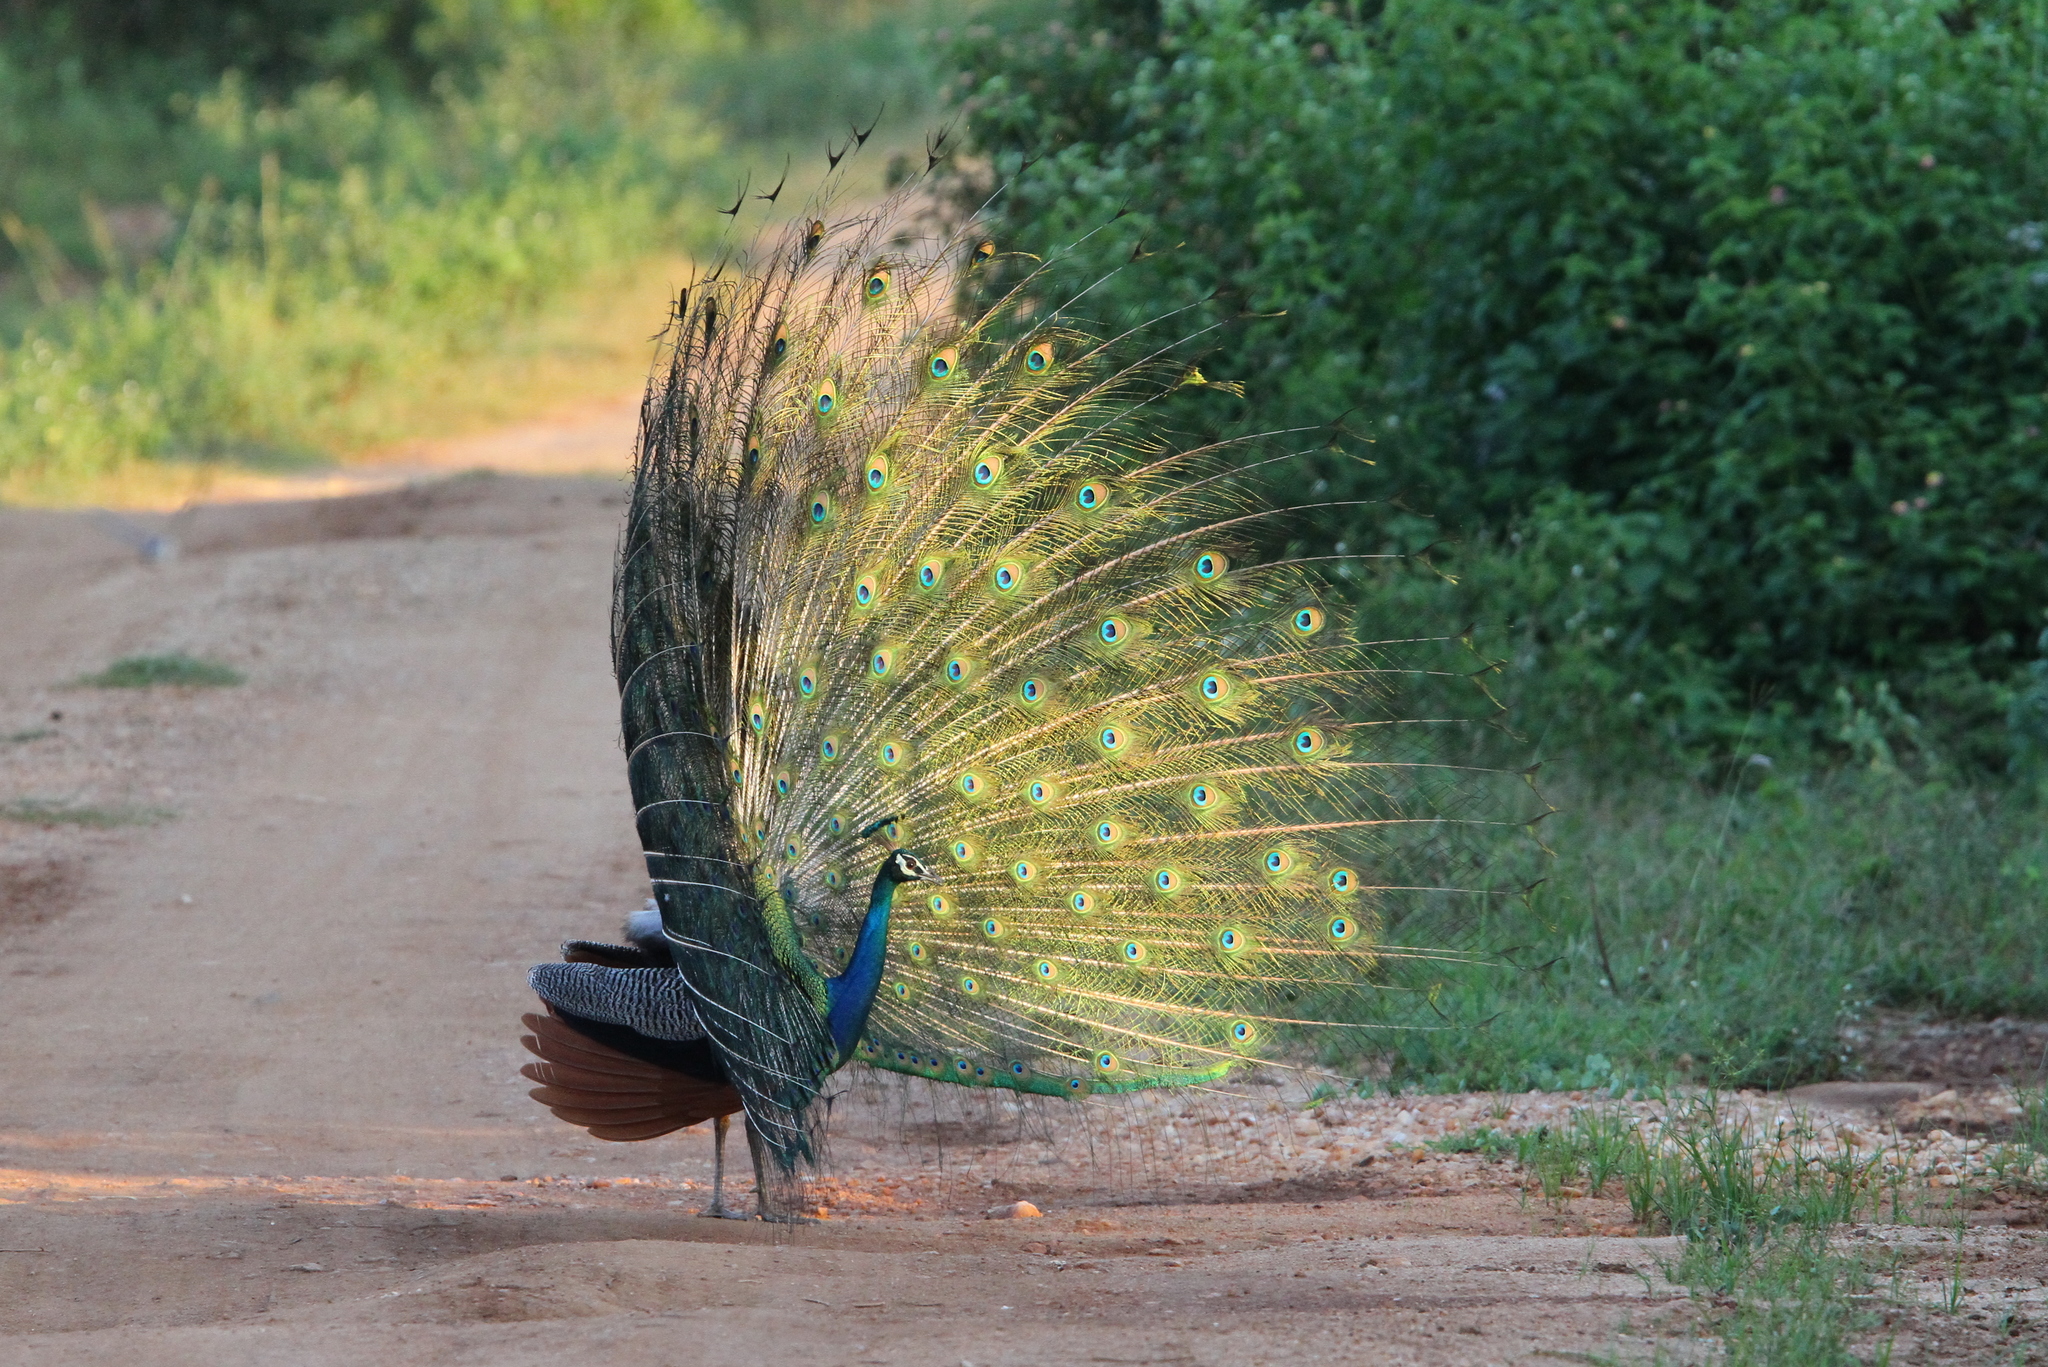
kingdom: Animalia
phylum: Chordata
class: Aves
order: Galliformes
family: Phasianidae
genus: Pavo
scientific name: Pavo cristatus
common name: Indian peafowl
